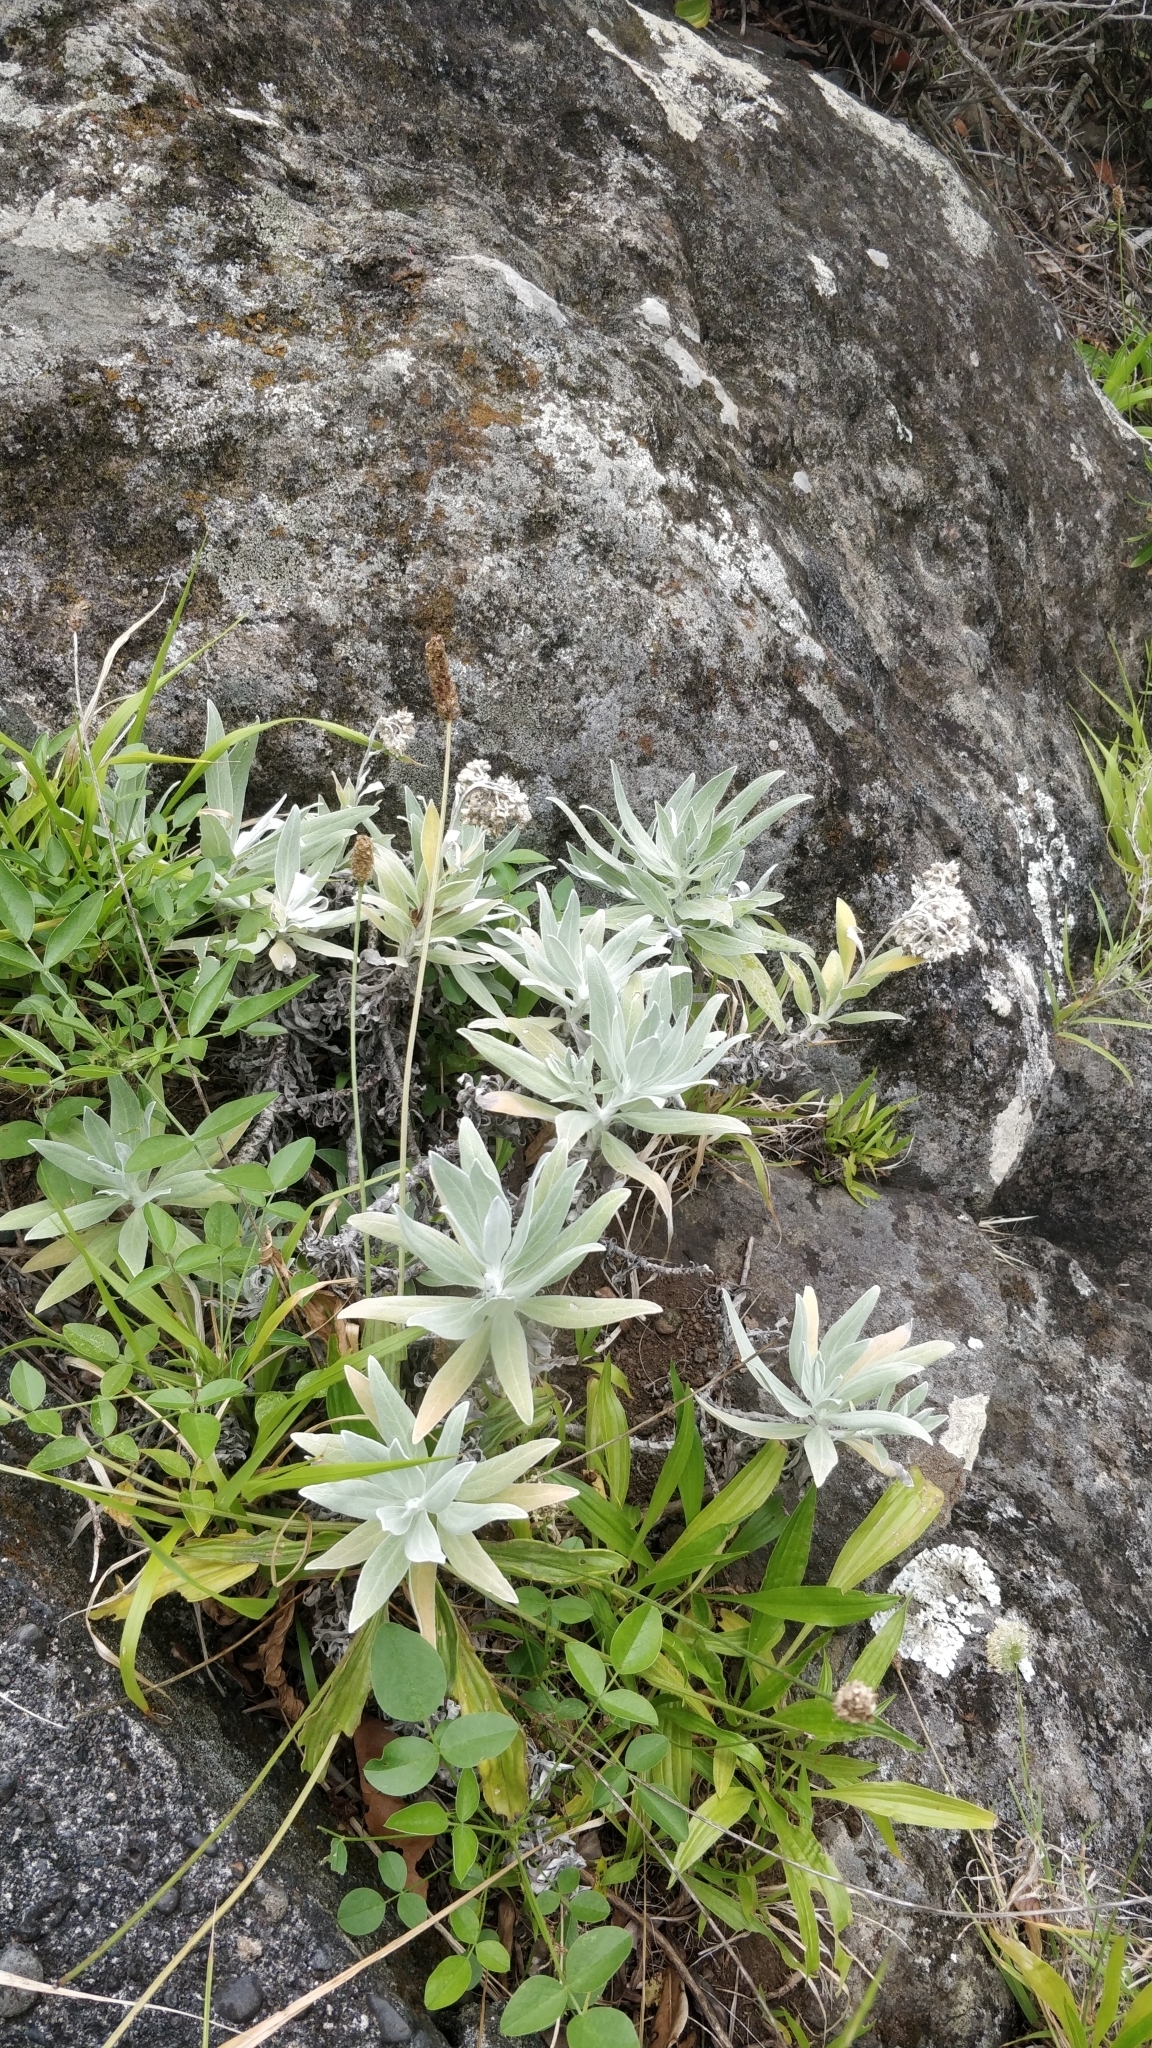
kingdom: Plantae
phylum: Tracheophyta
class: Magnoliopsida
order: Asterales
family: Asteraceae
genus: Helichrysum
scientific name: Helichrysum melaleucum
